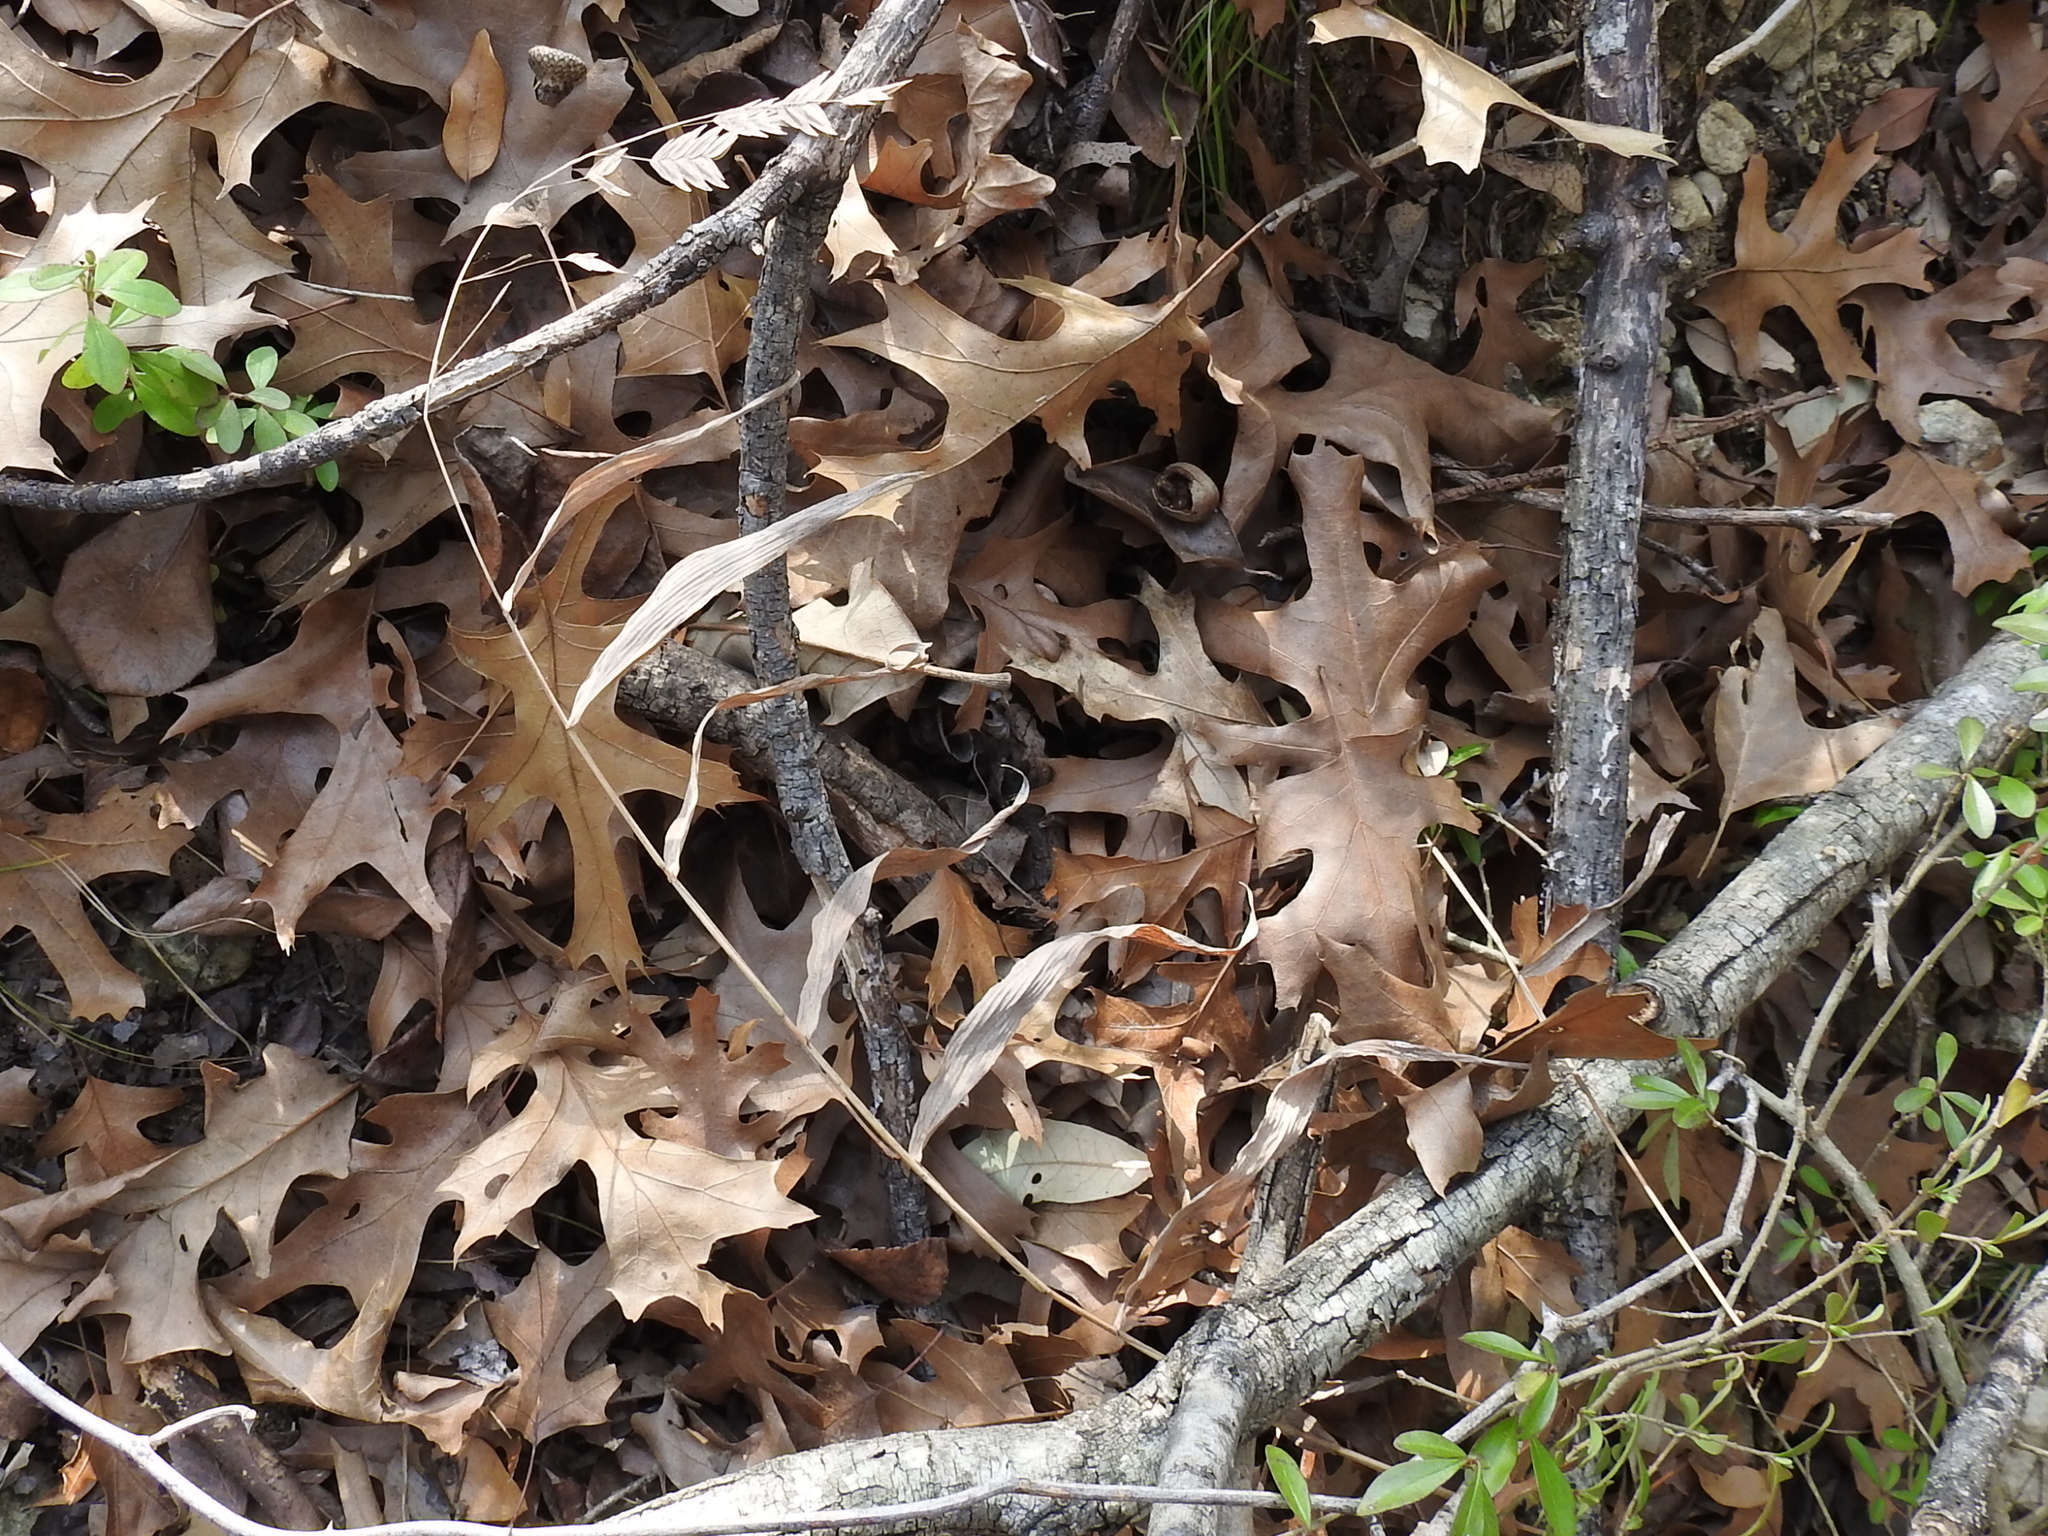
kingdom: Plantae
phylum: Tracheophyta
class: Liliopsida
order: Poales
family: Poaceae
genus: Chasmanthium
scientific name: Chasmanthium latifolium
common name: Broad-leaved chasmanthium
